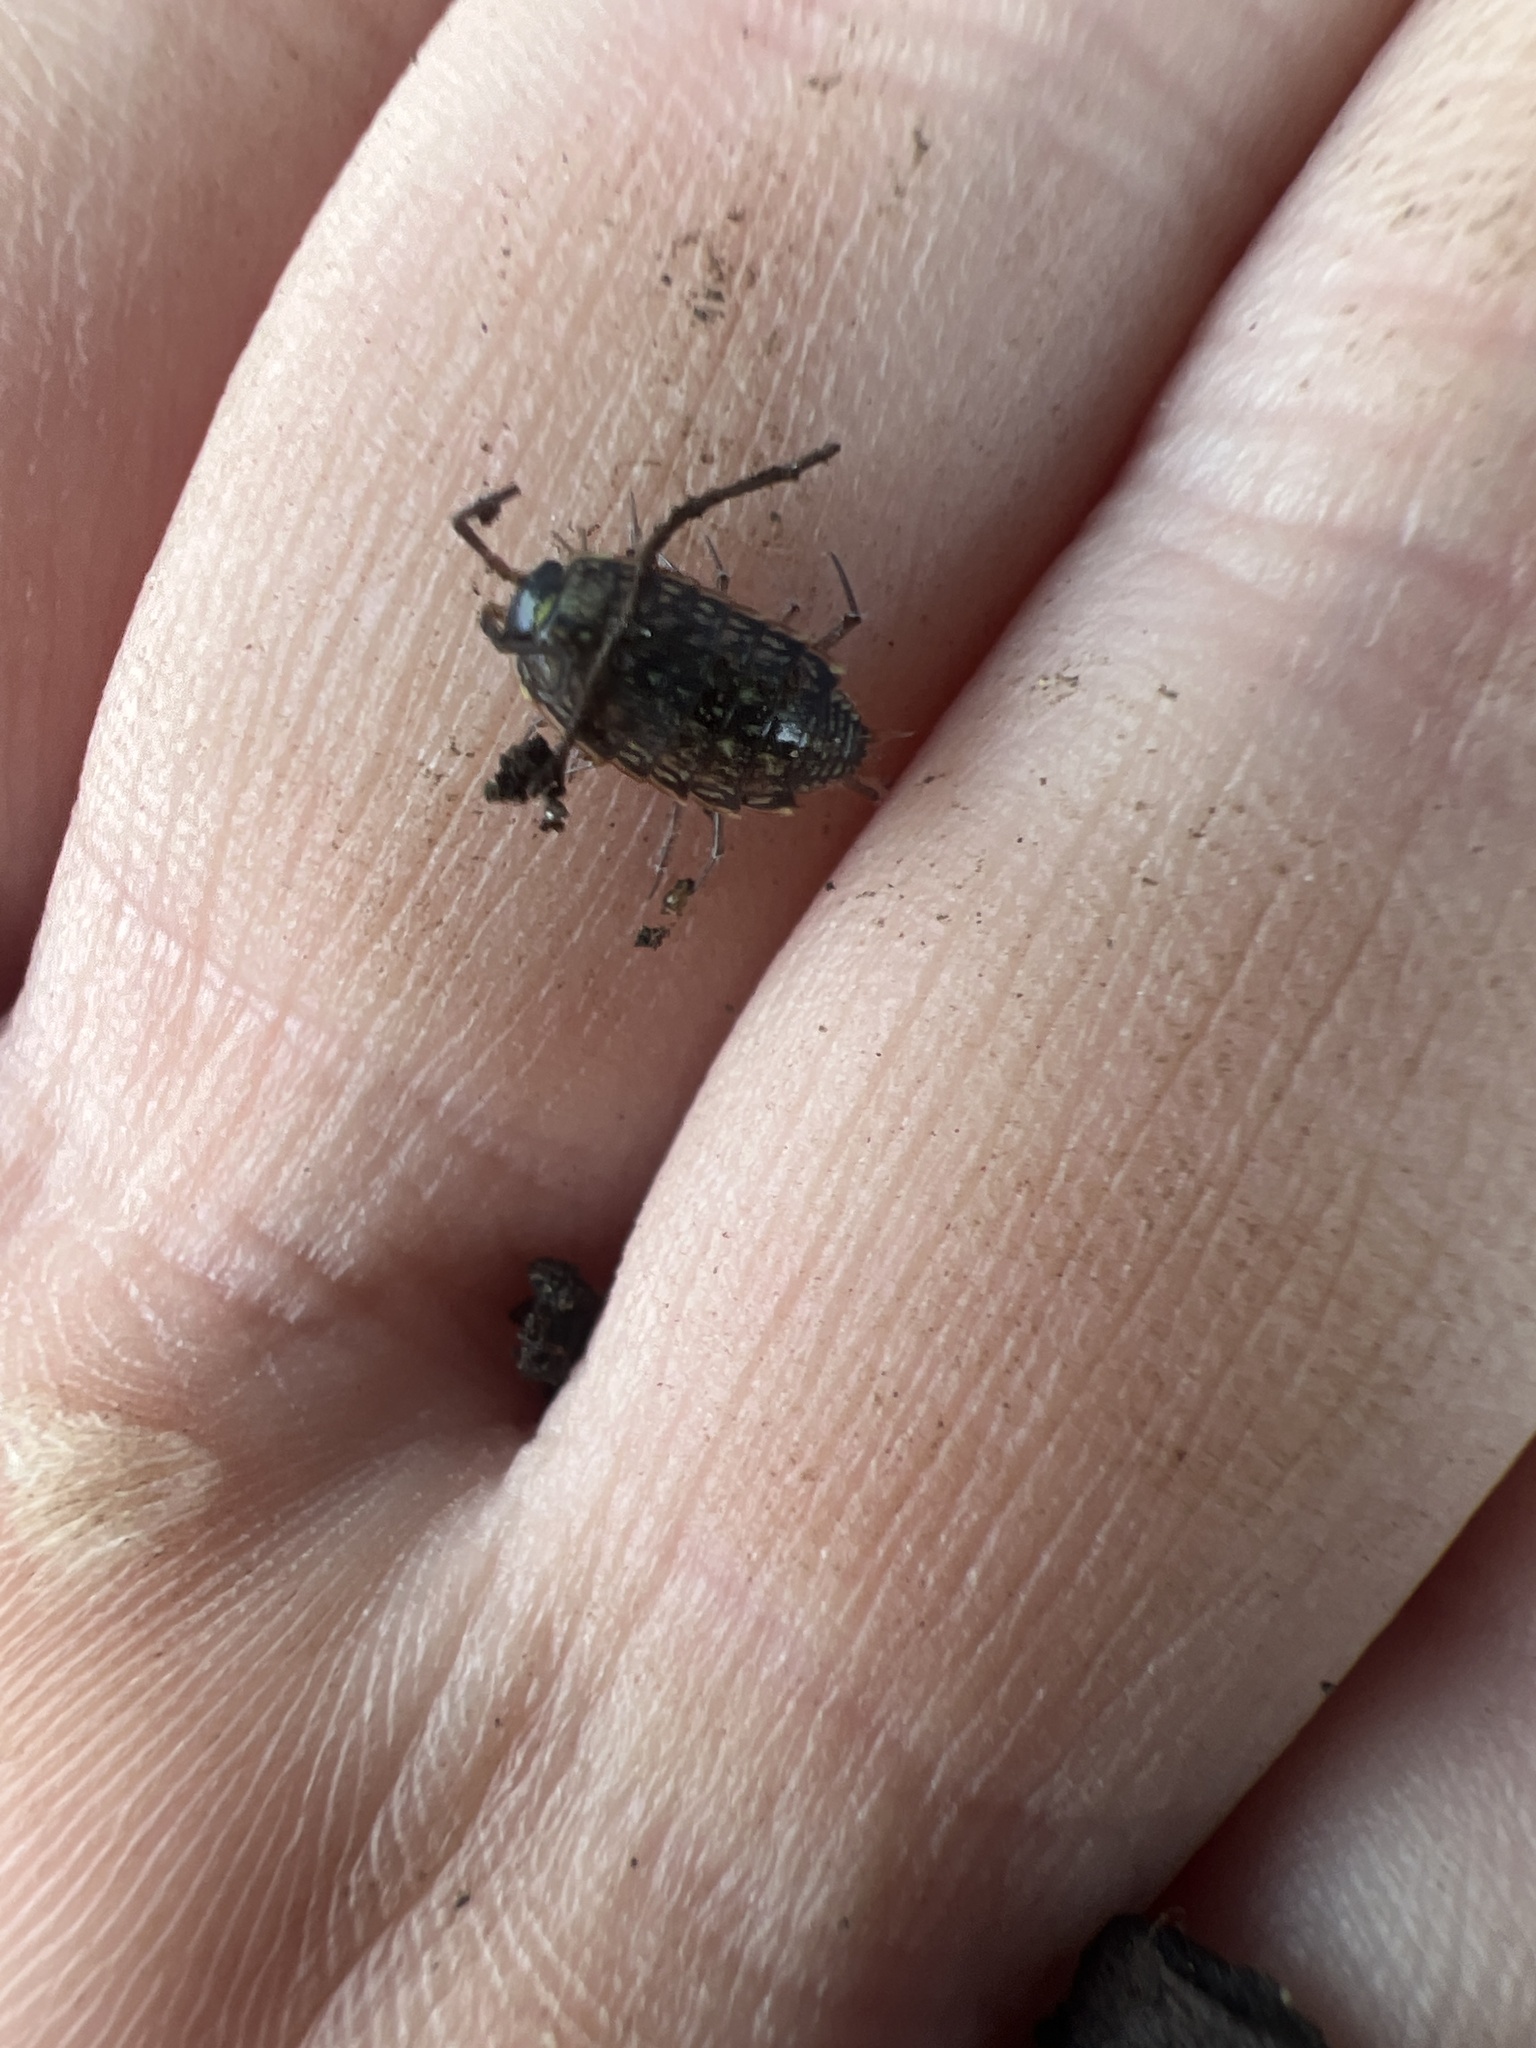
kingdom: Animalia
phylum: Arthropoda
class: Malacostraca
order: Isopoda
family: Philosciidae
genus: Philoscia
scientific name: Philoscia muscorum
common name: Common striped woodlouse
